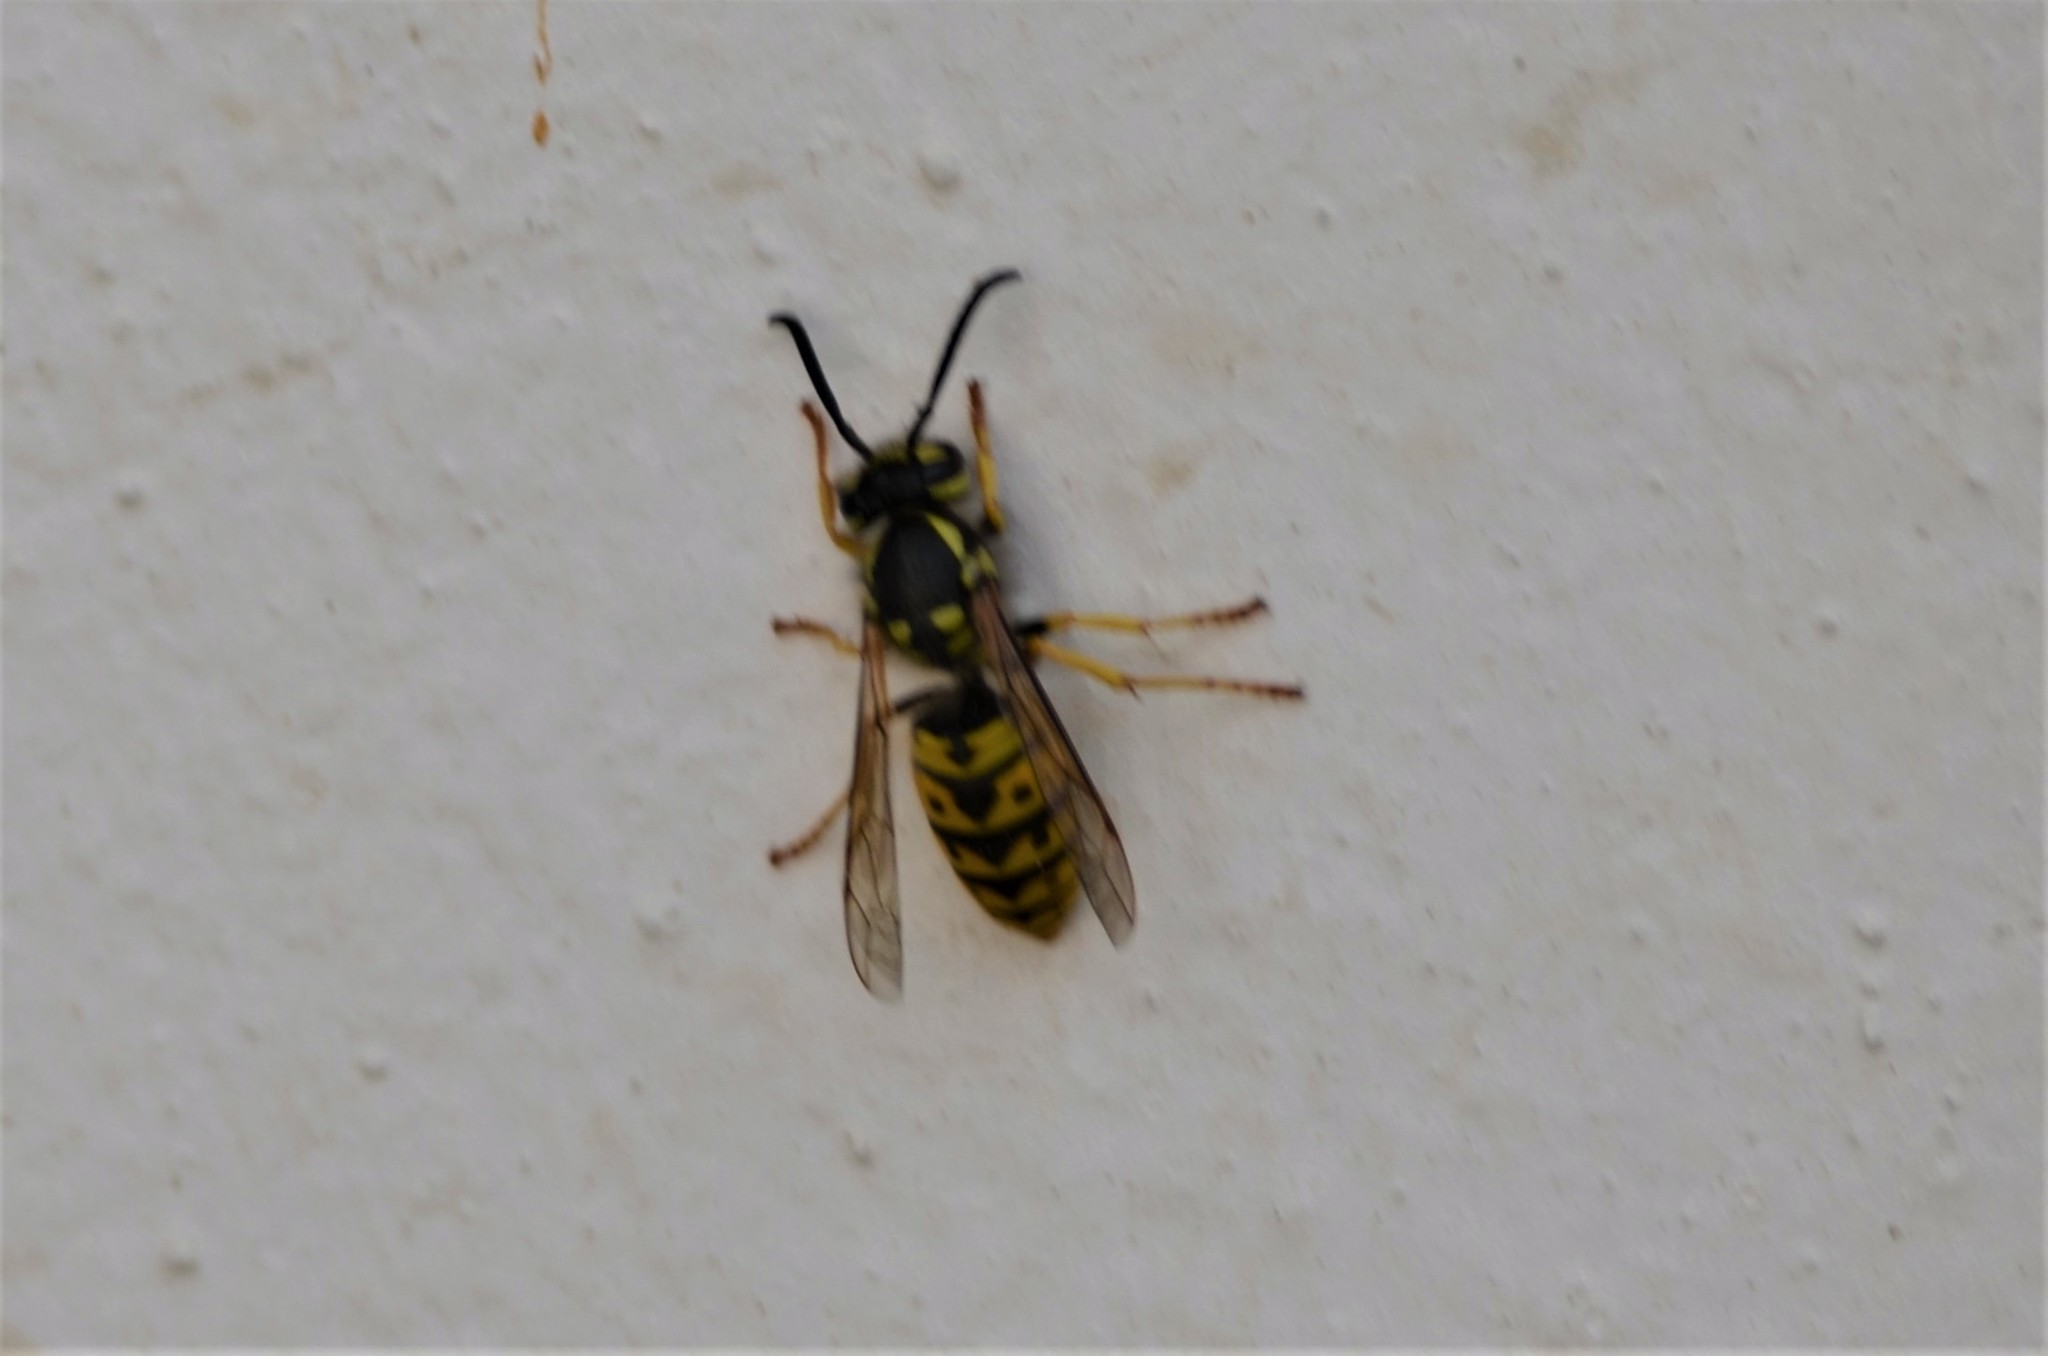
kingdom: Animalia
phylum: Arthropoda
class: Insecta
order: Hymenoptera
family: Vespidae
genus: Vespula
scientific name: Vespula germanica
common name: German wasp
